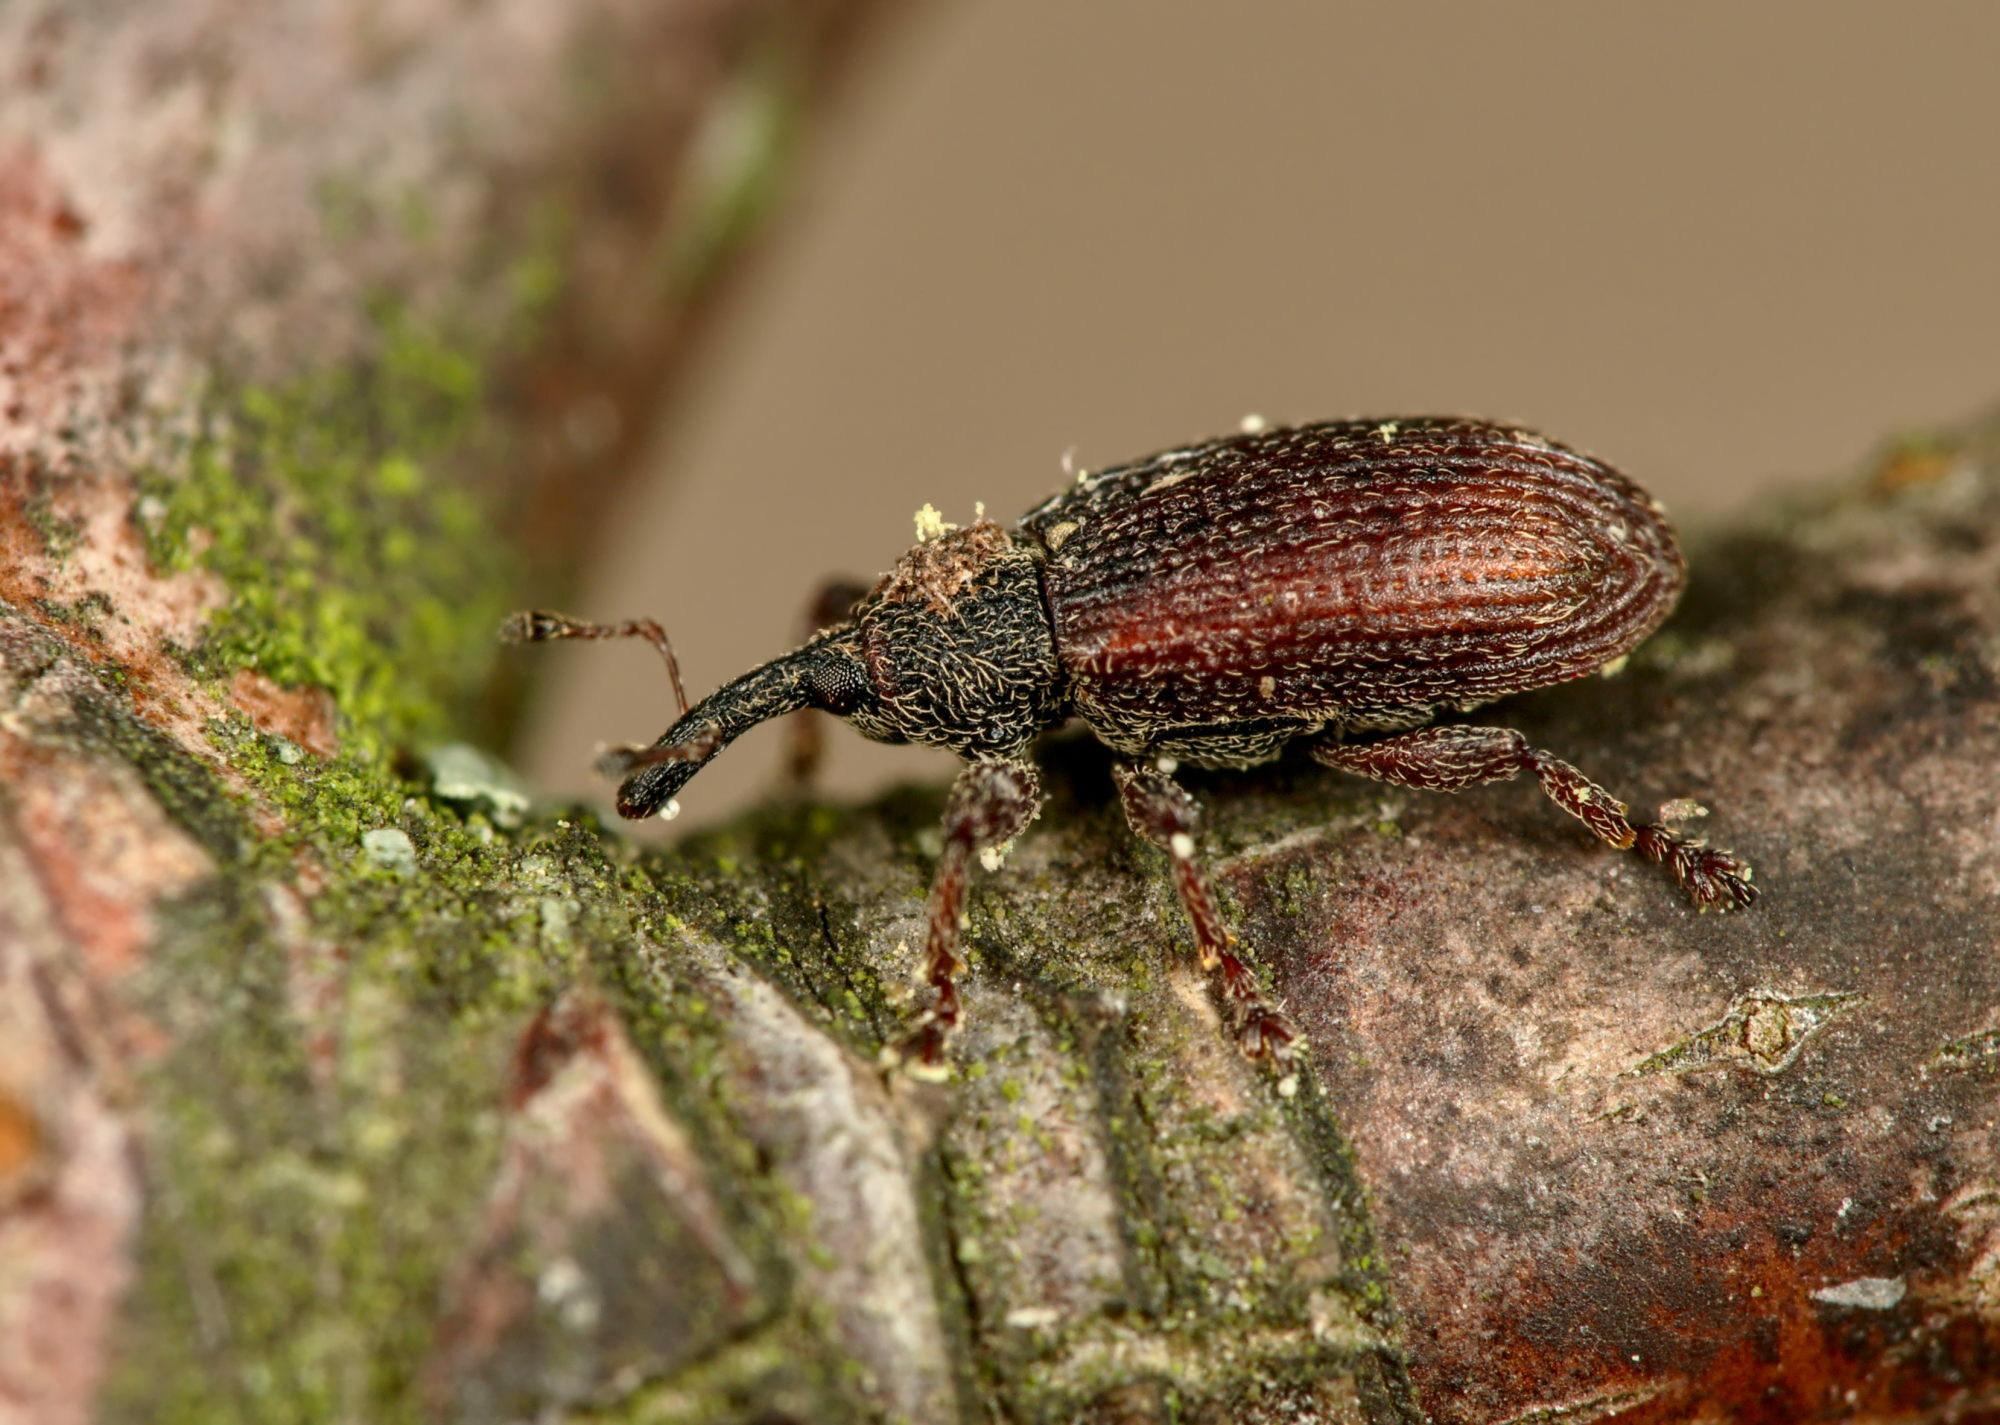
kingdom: Animalia
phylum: Arthropoda
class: Insecta
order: Coleoptera
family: Curculionidae
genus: Bradybatus
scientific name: Bradybatus kellneri
